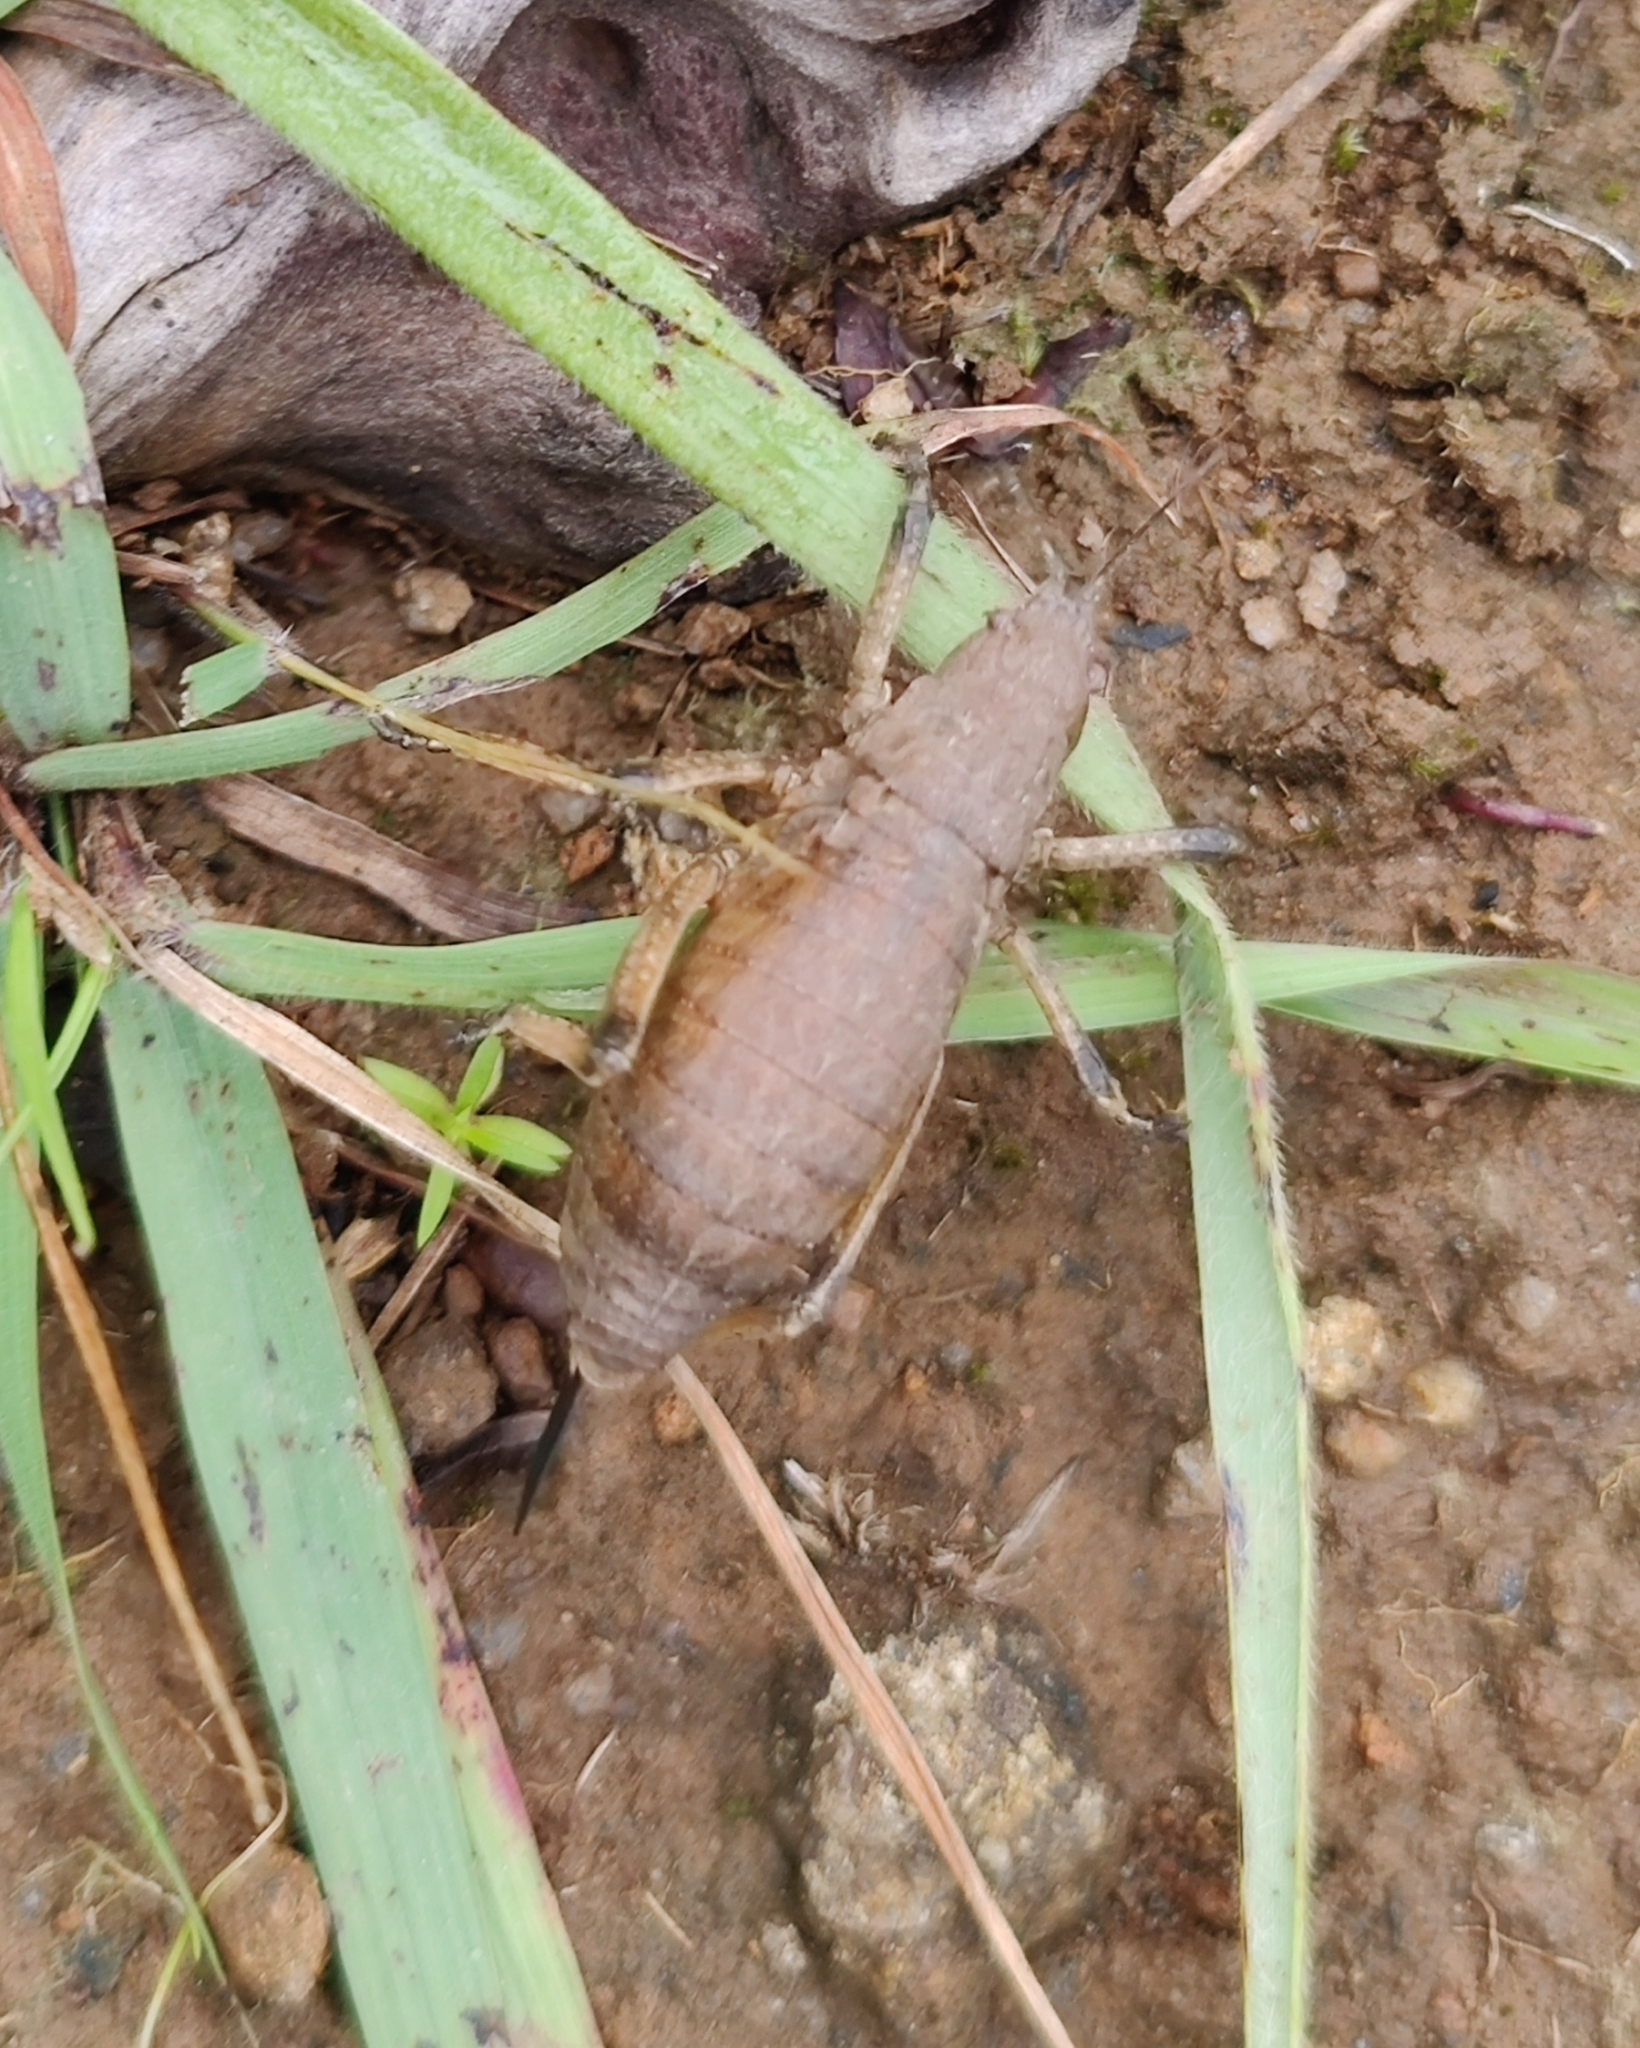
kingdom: Animalia
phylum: Arthropoda
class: Insecta
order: Orthoptera
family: Tettigoniidae
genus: Callimenellus
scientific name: Callimenellus apterus
